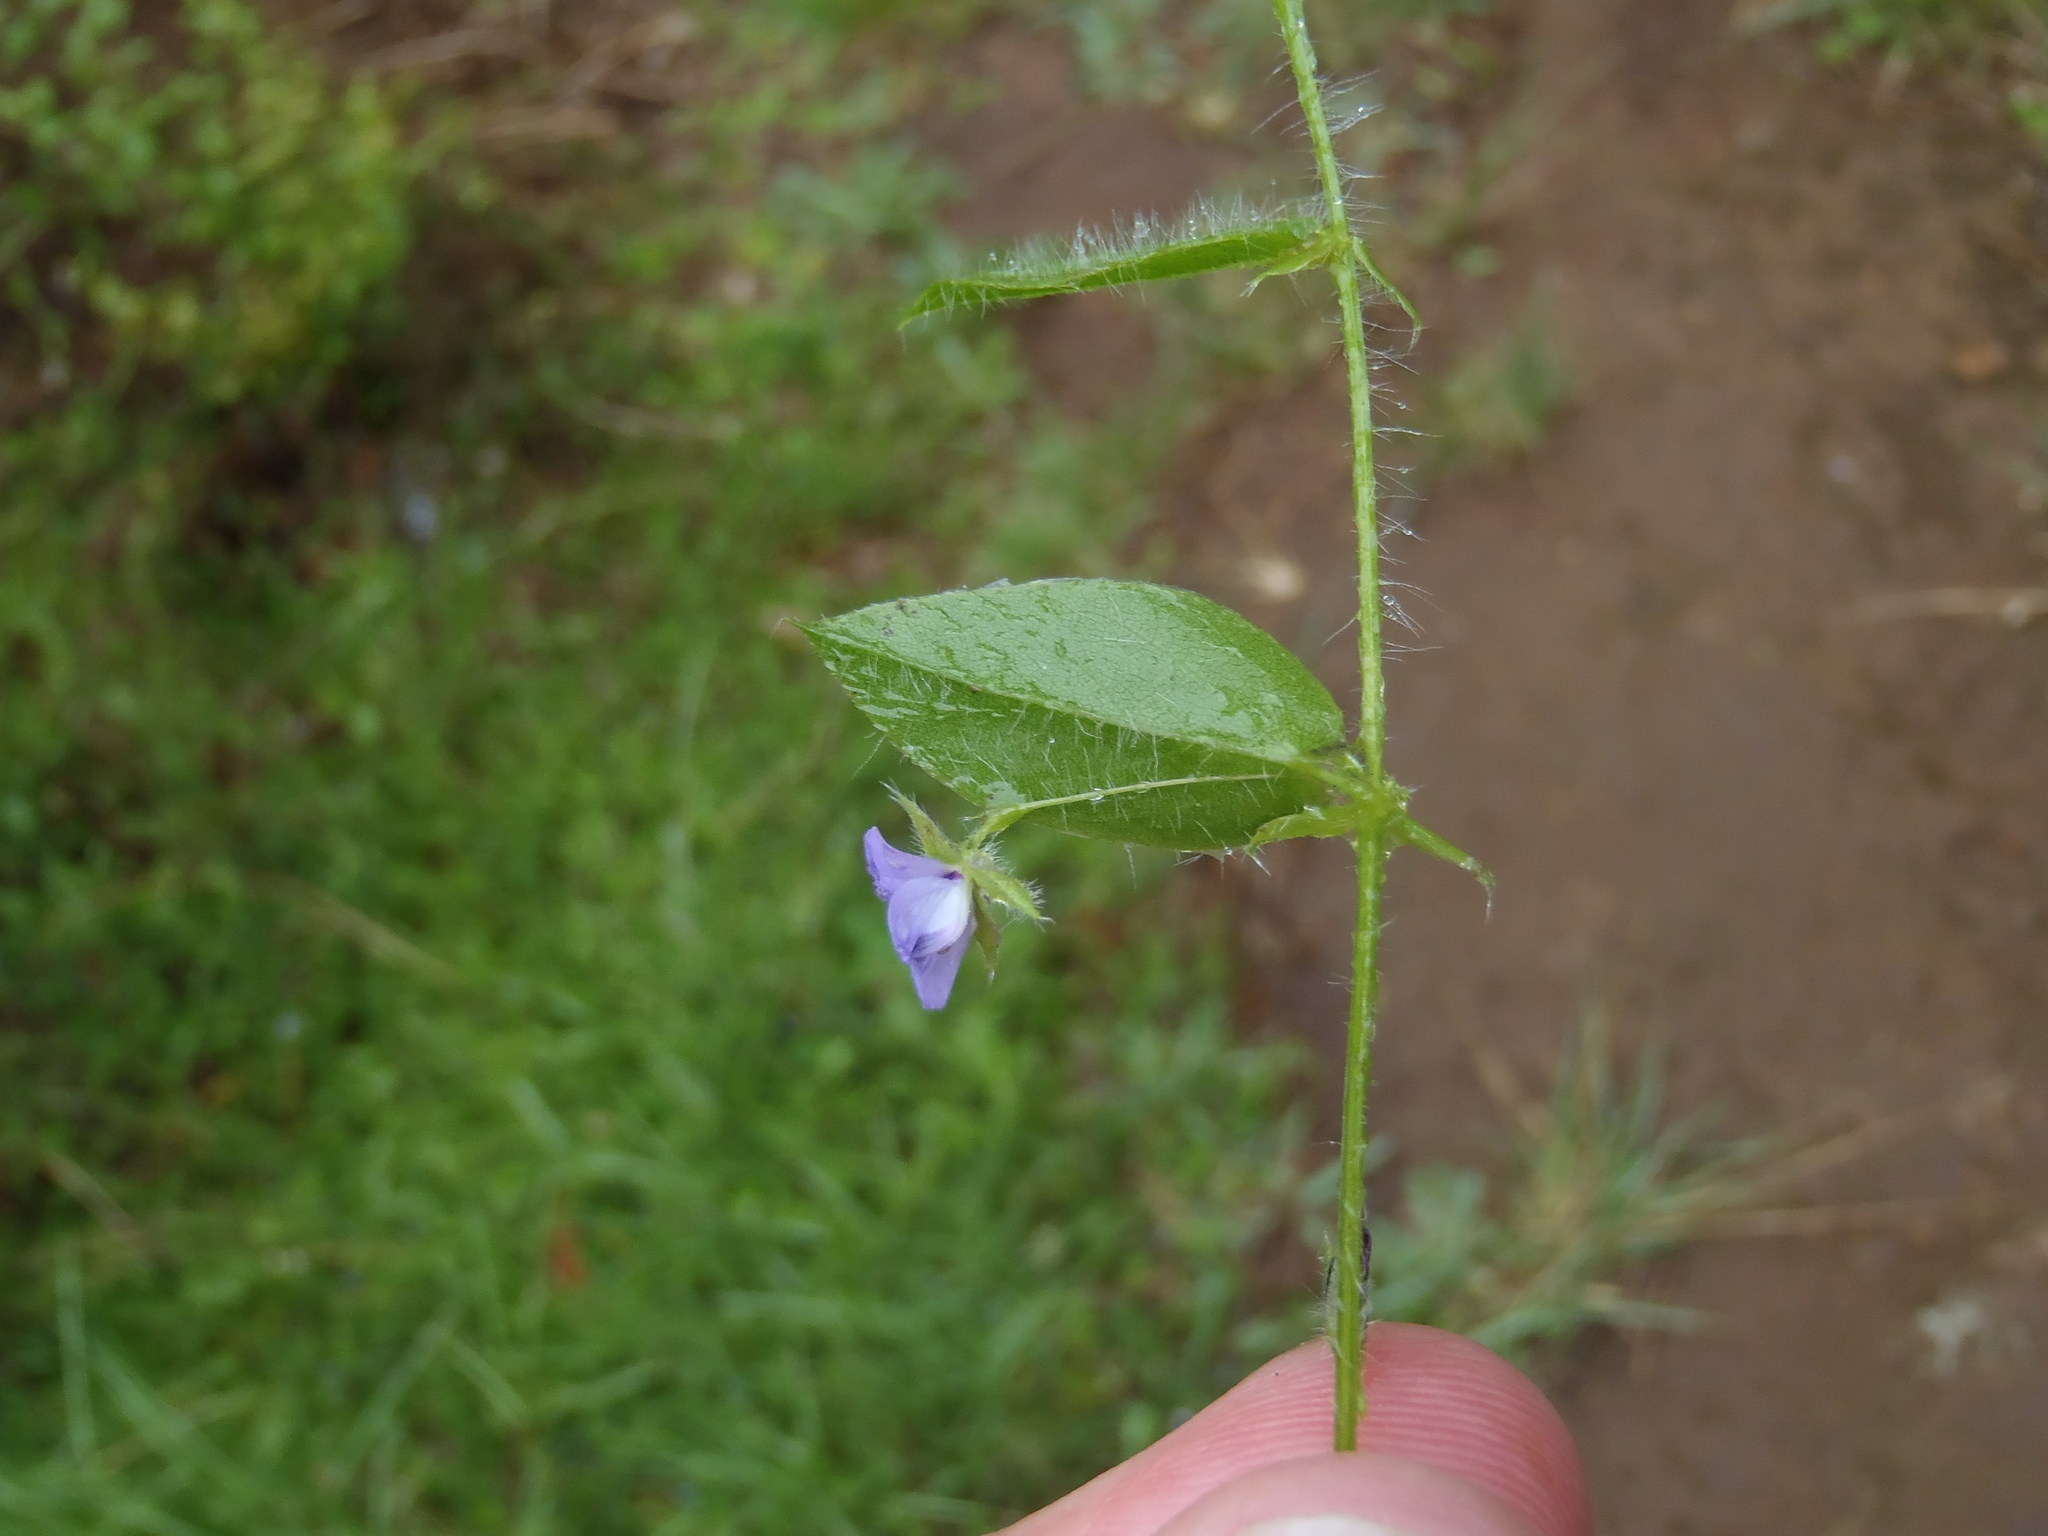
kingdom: Plantae
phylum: Tracheophyta
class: Magnoliopsida
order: Fabales
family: Fabaceae
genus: Psoralea
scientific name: Psoralea asarina
